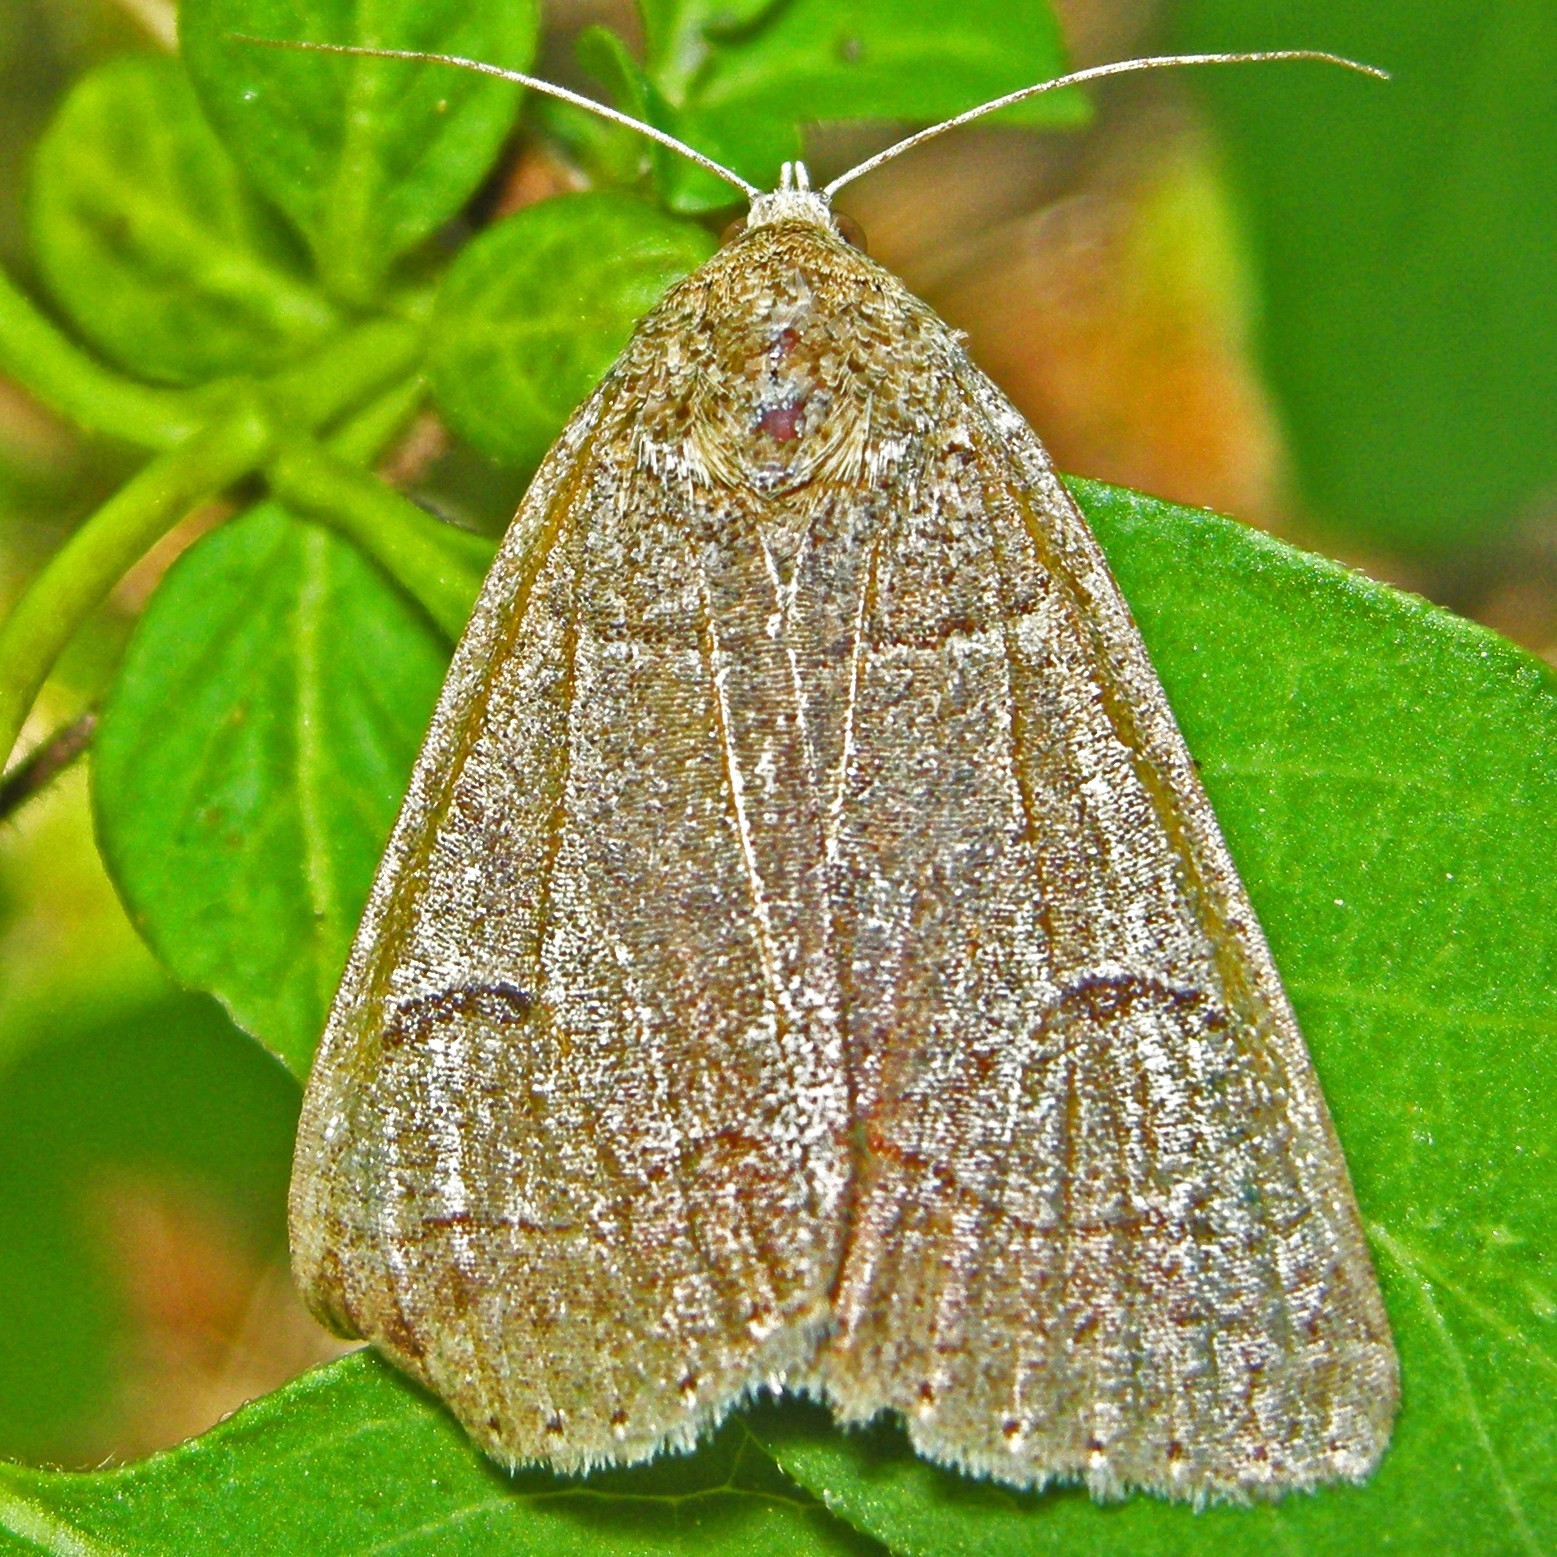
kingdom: Animalia
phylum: Arthropoda
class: Insecta
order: Lepidoptera
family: Erebidae
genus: Phoberia
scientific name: Phoberia atomaris
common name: Common oak moth
